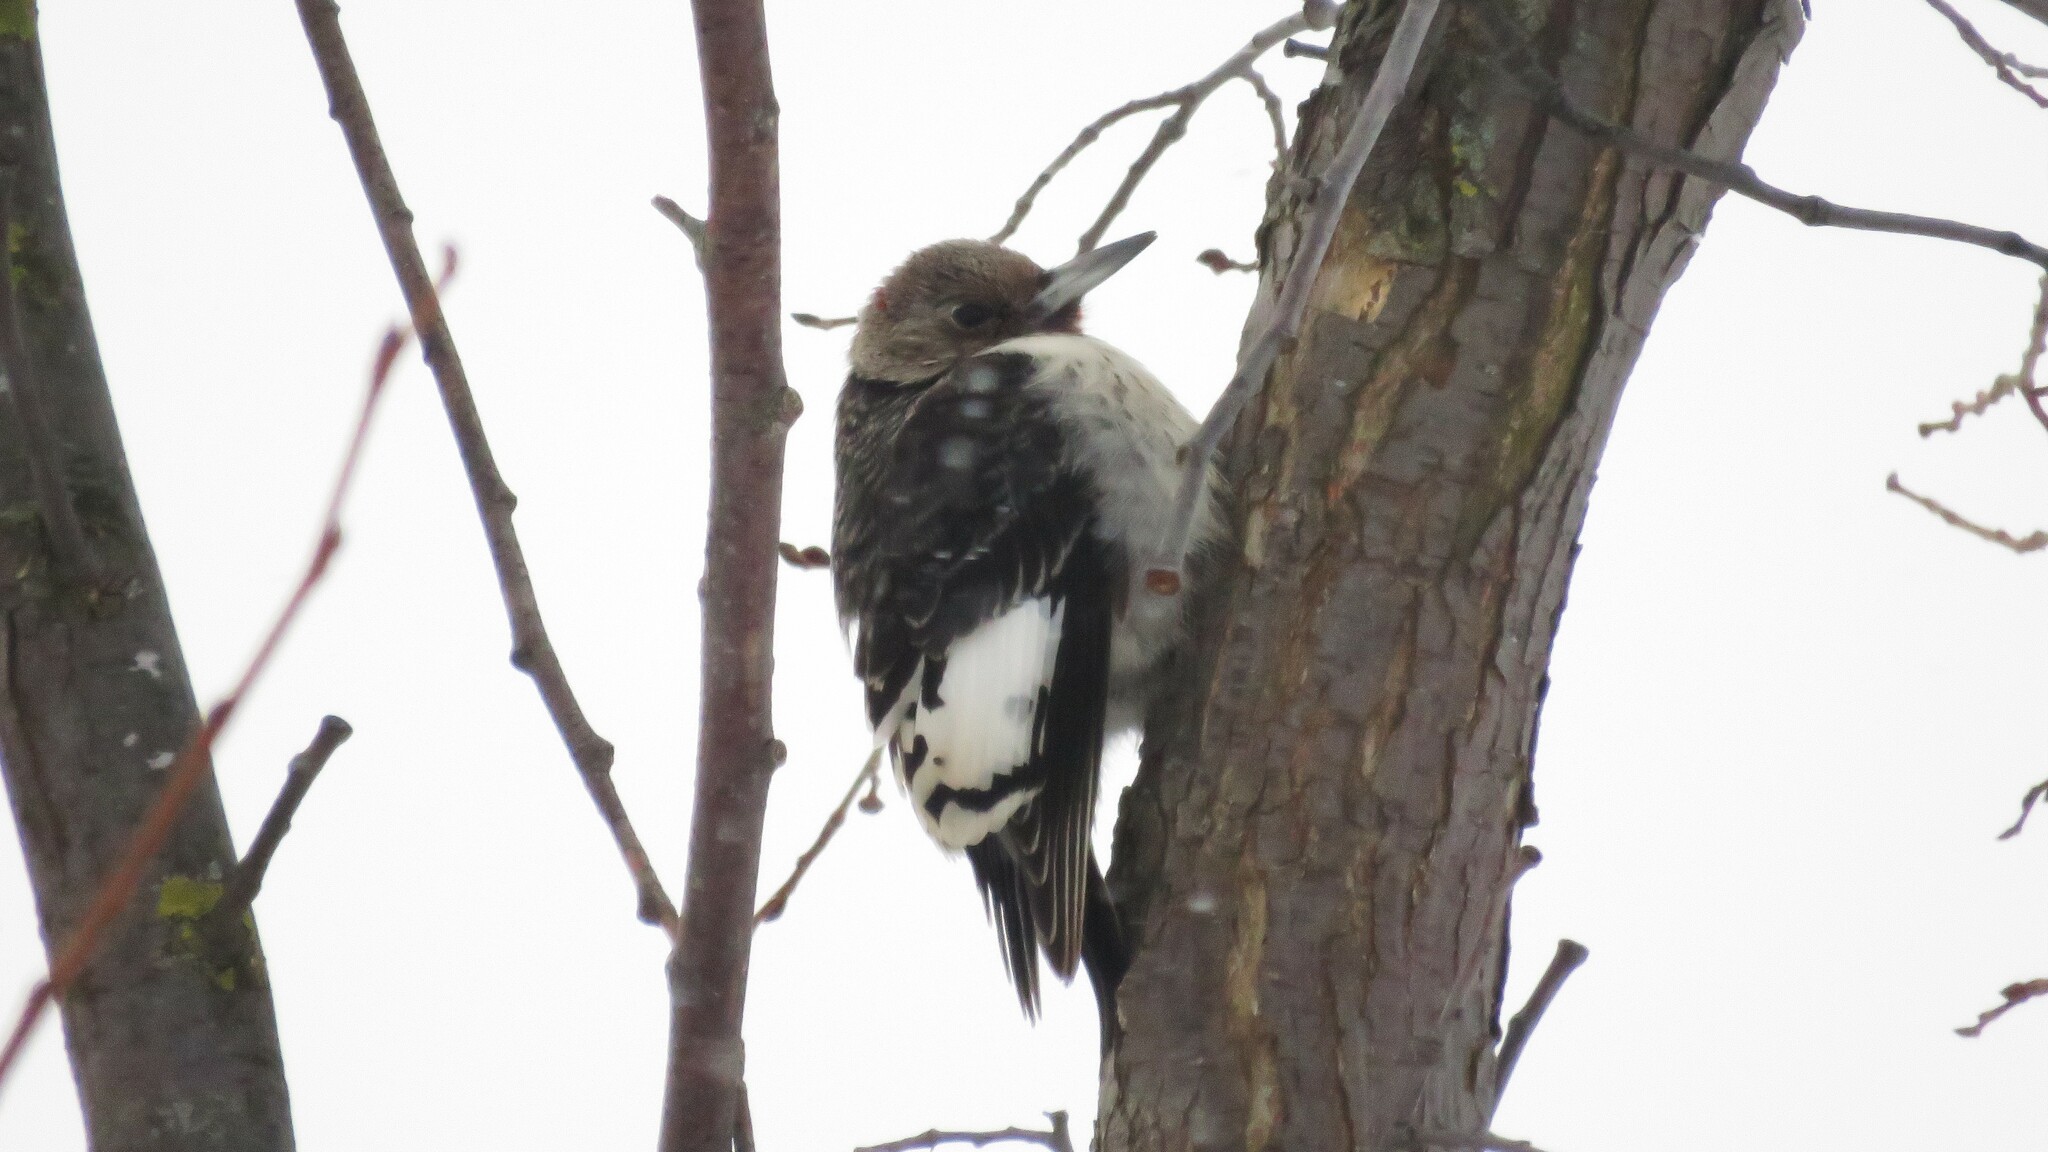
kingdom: Animalia
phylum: Chordata
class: Aves
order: Piciformes
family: Picidae
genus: Melanerpes
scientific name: Melanerpes erythrocephalus
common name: Red-headed woodpecker
